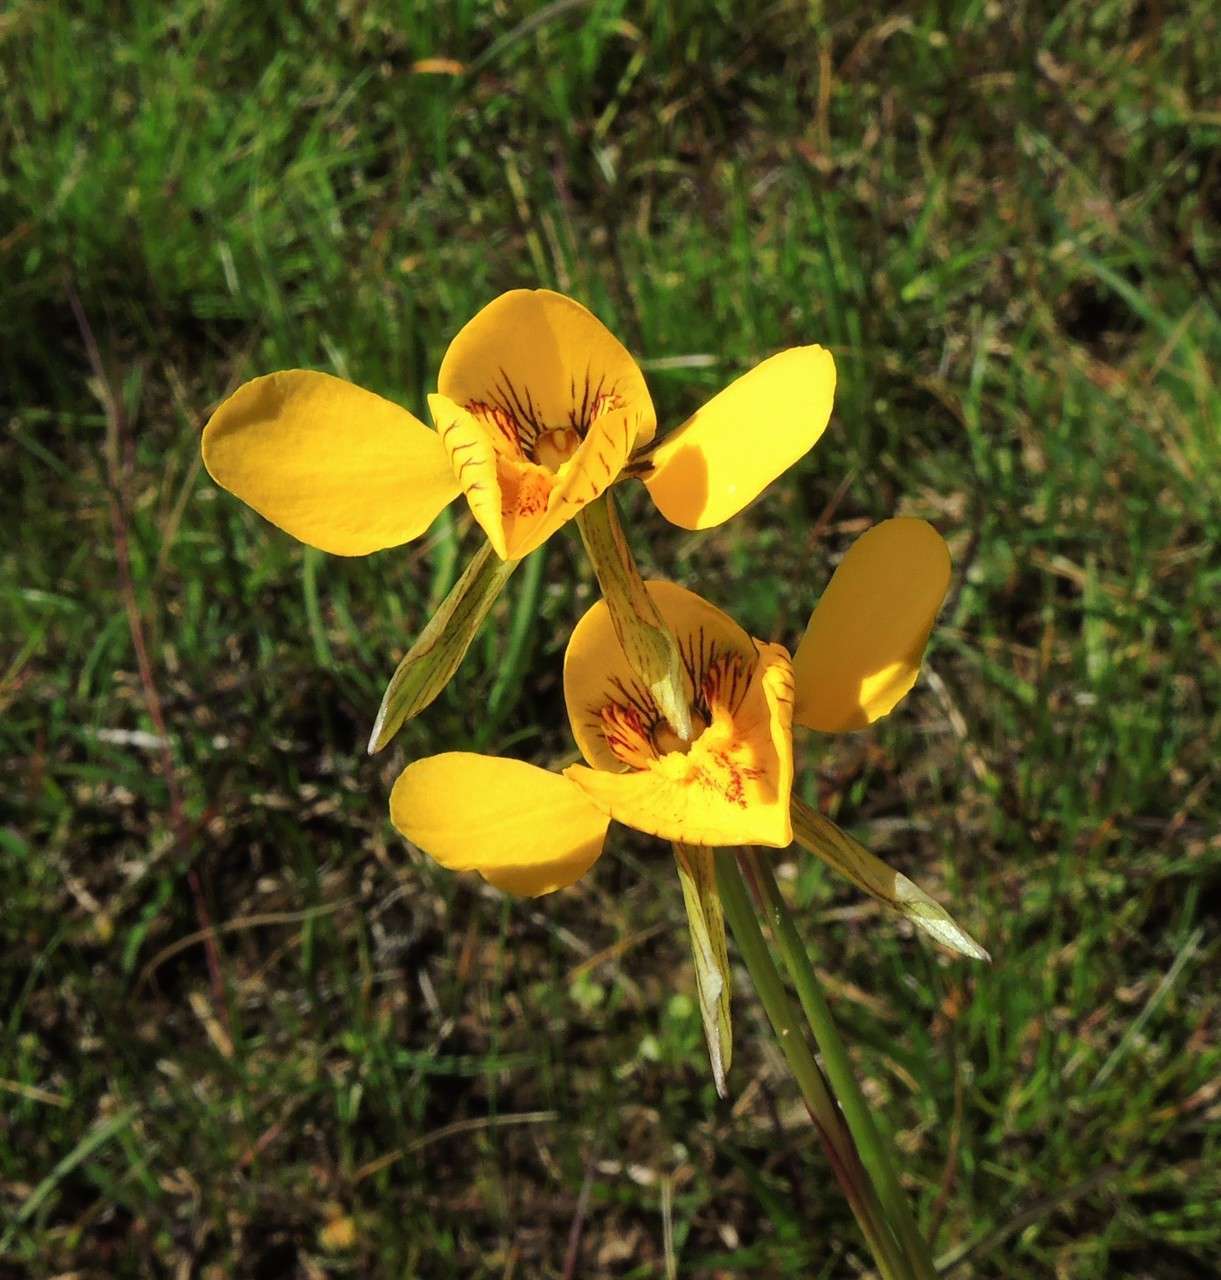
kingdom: Plantae
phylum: Tracheophyta
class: Liliopsida
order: Asparagales
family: Orchidaceae
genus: Diuris
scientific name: Diuris chryseopsis
